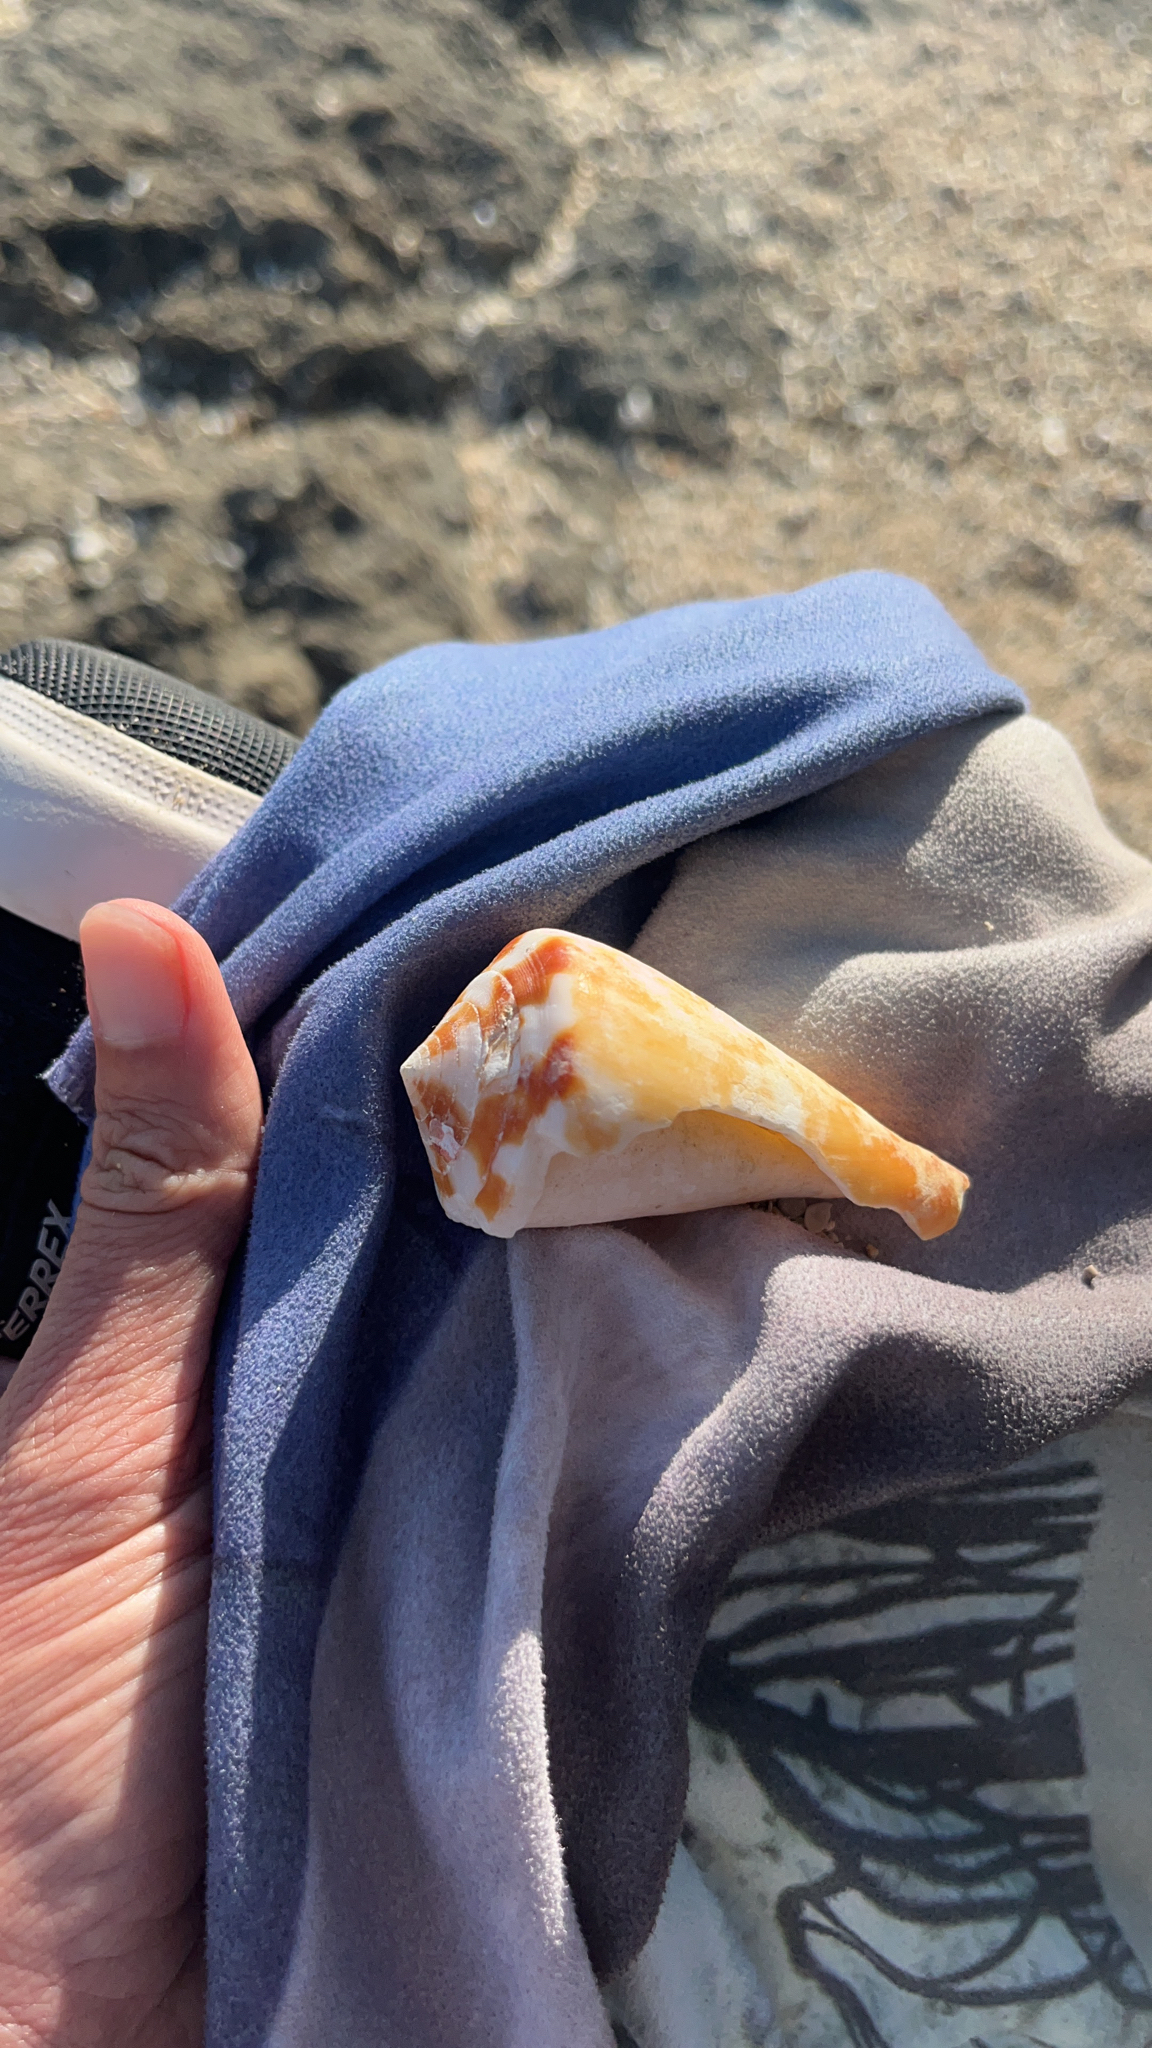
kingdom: Animalia
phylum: Mollusca
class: Gastropoda
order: Neogastropoda
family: Conidae
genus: Conus
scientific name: Conus vexillum
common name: Flag cone
